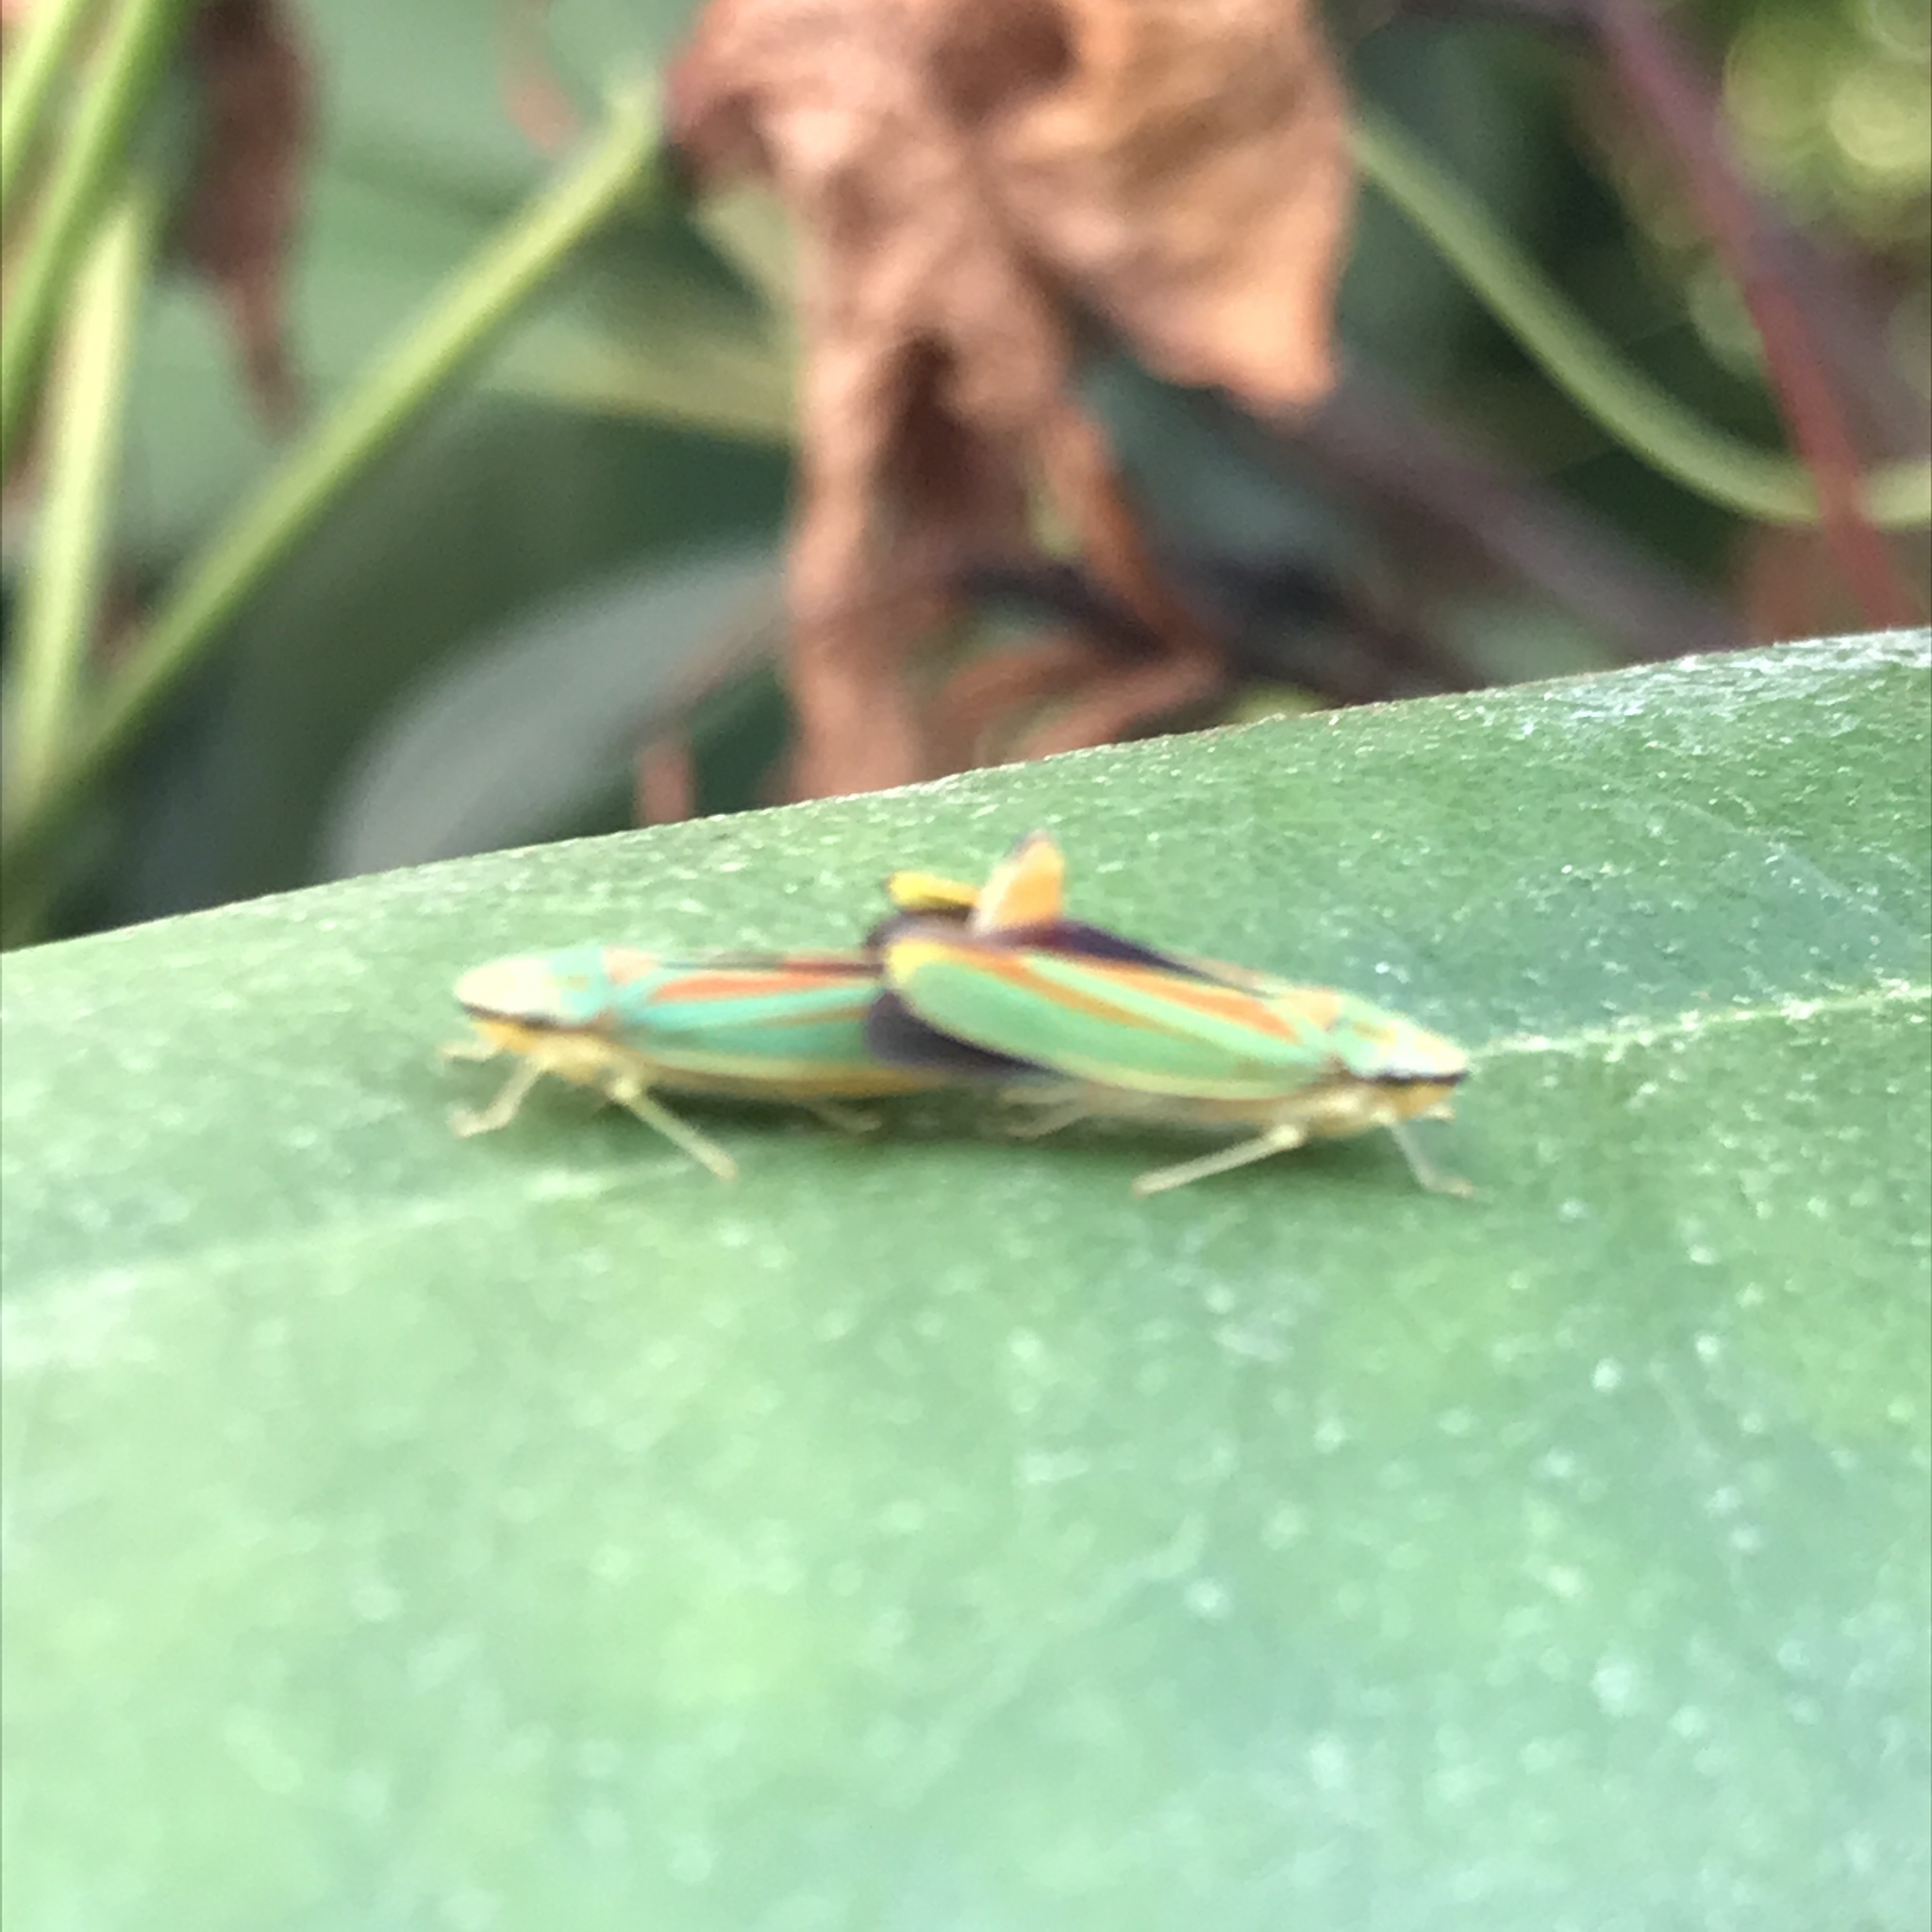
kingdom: Animalia
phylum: Arthropoda
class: Insecta
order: Hemiptera
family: Cicadellidae
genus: Graphocephala
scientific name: Graphocephala fennahi
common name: Rhododendron leafhopper
